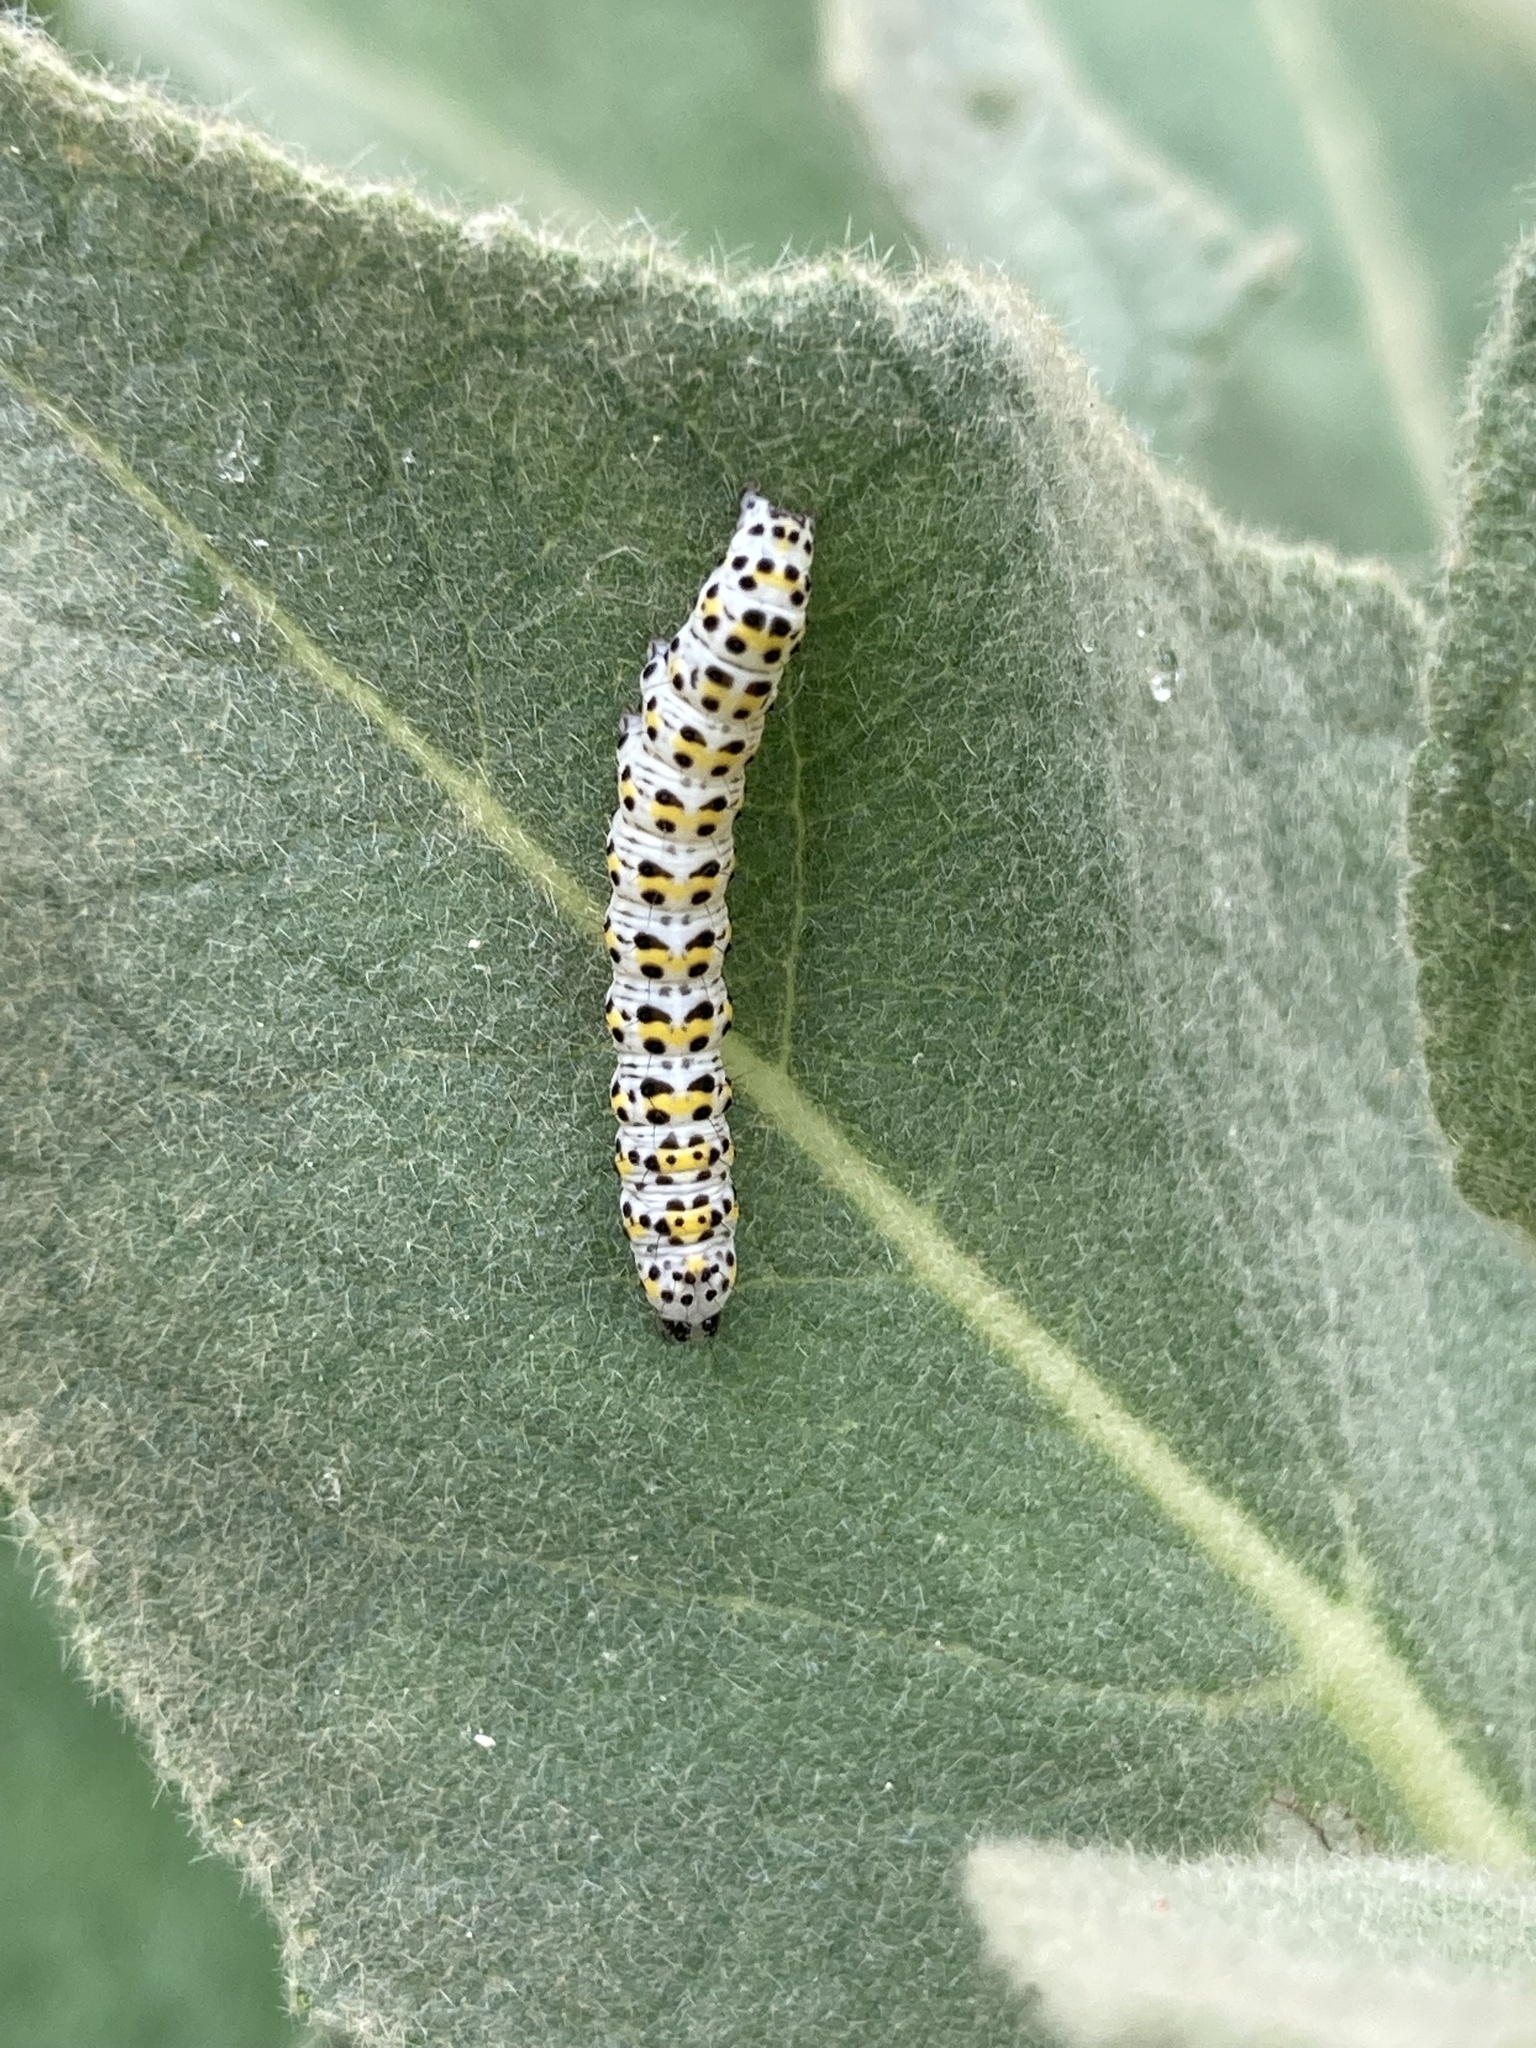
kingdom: Animalia
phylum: Arthropoda
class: Insecta
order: Lepidoptera
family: Noctuidae
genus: Cucullia
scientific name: Cucullia verbasci
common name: Mullein
